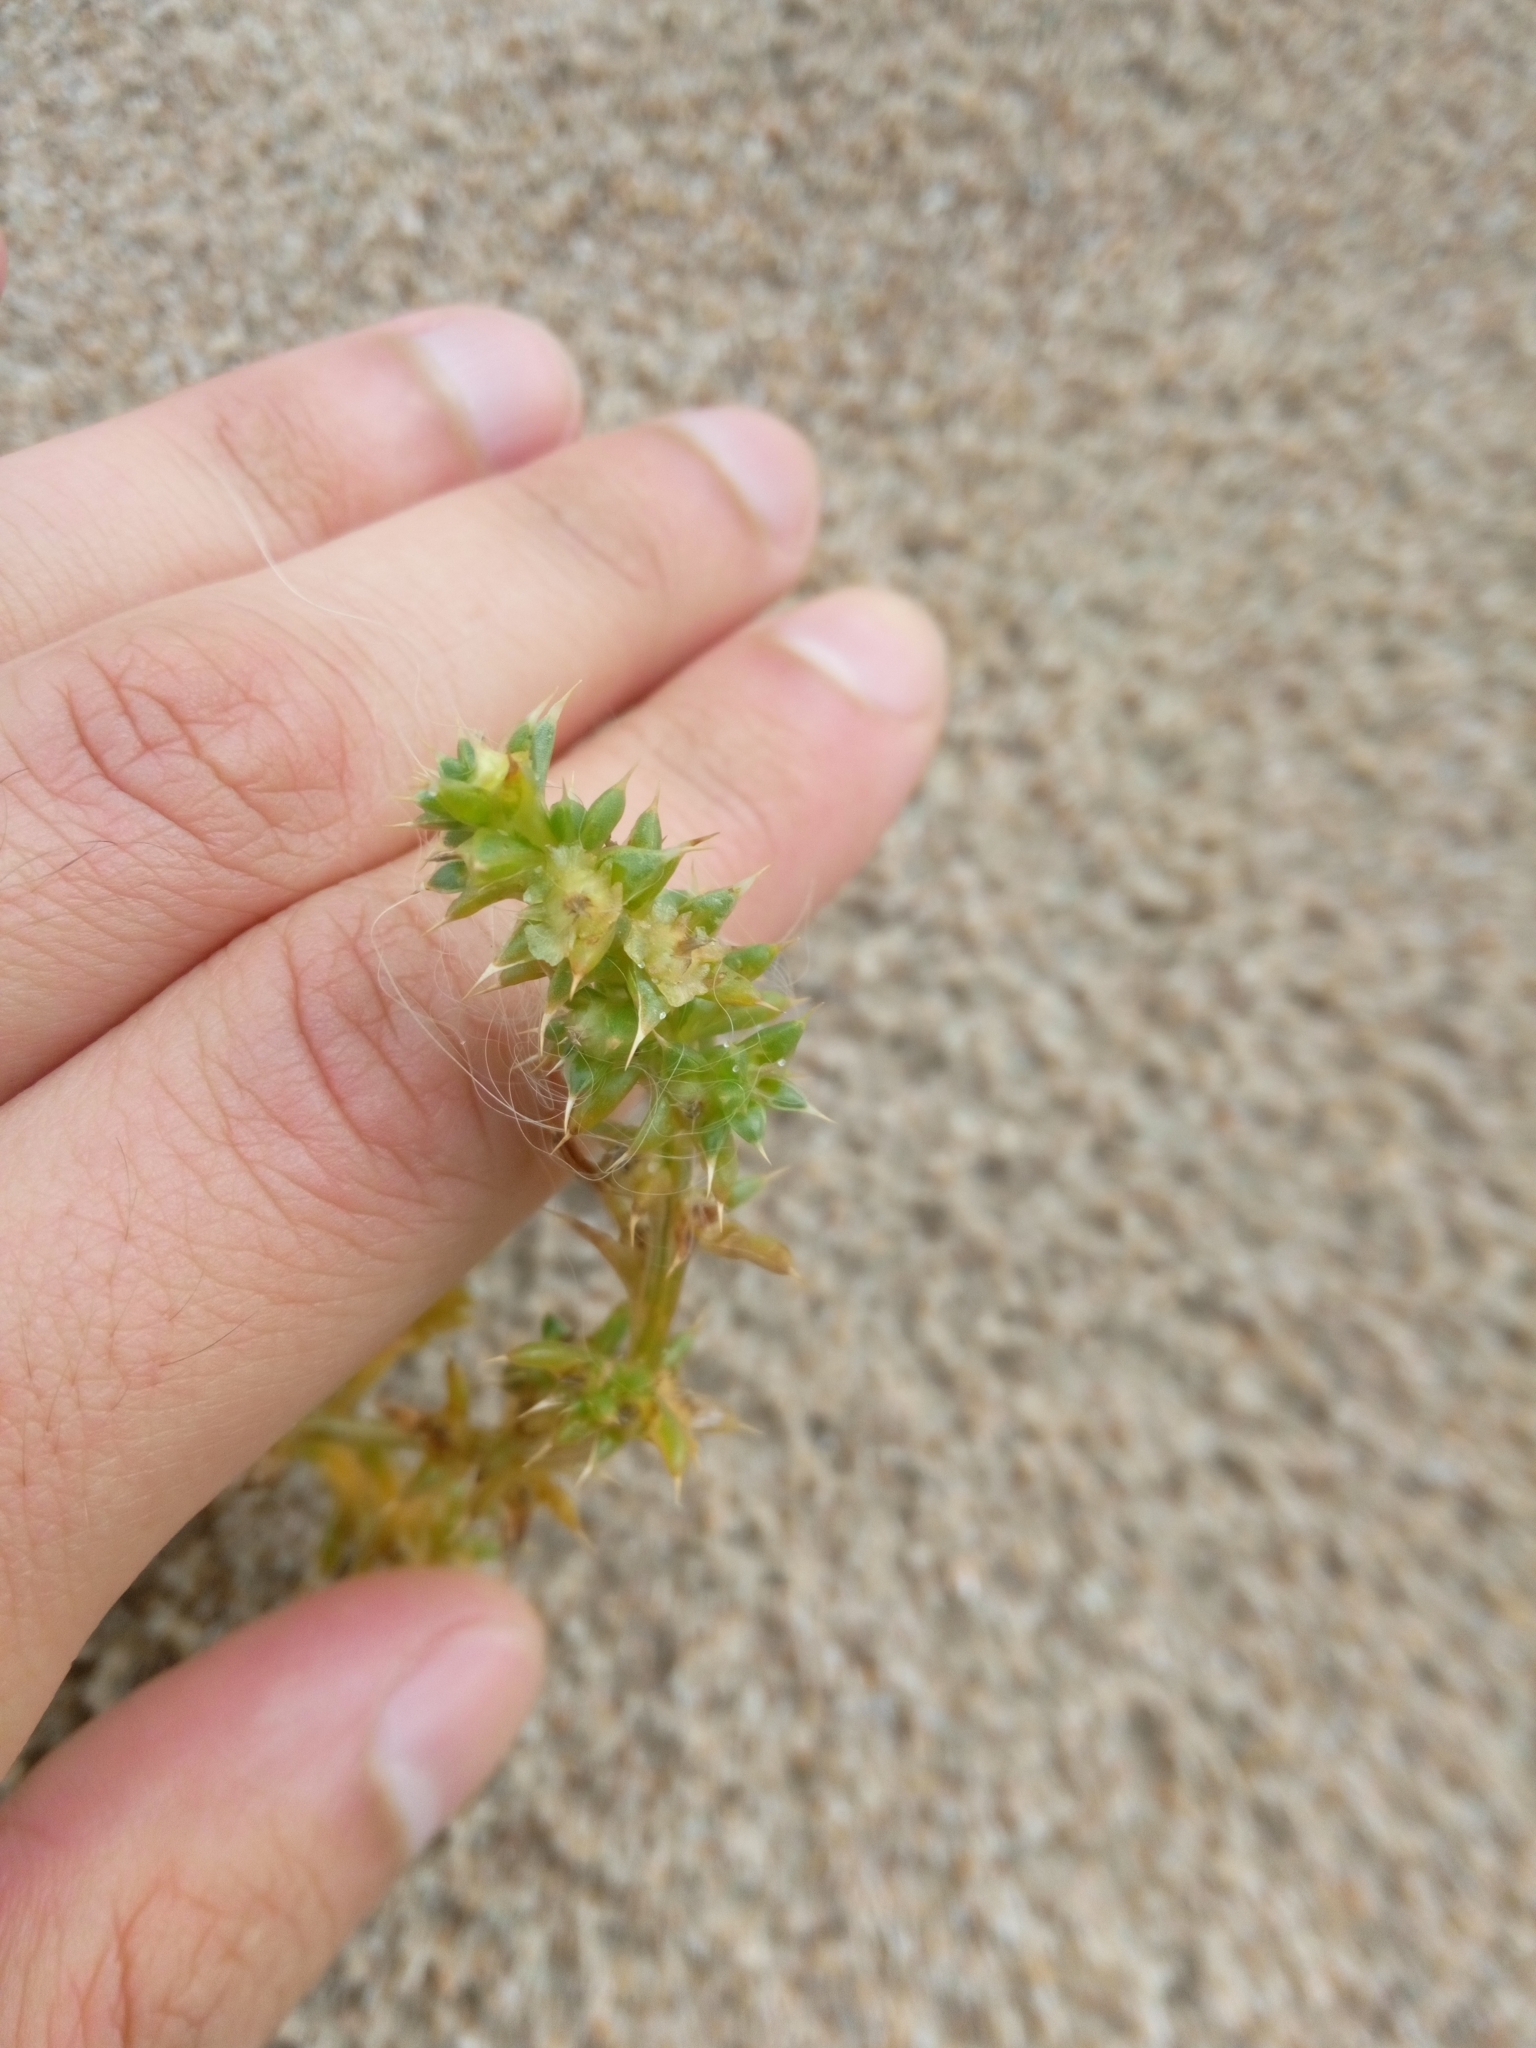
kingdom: Plantae
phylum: Tracheophyta
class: Magnoliopsida
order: Caryophyllales
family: Amaranthaceae
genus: Salsola
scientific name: Salsola kali
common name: Saltwort
